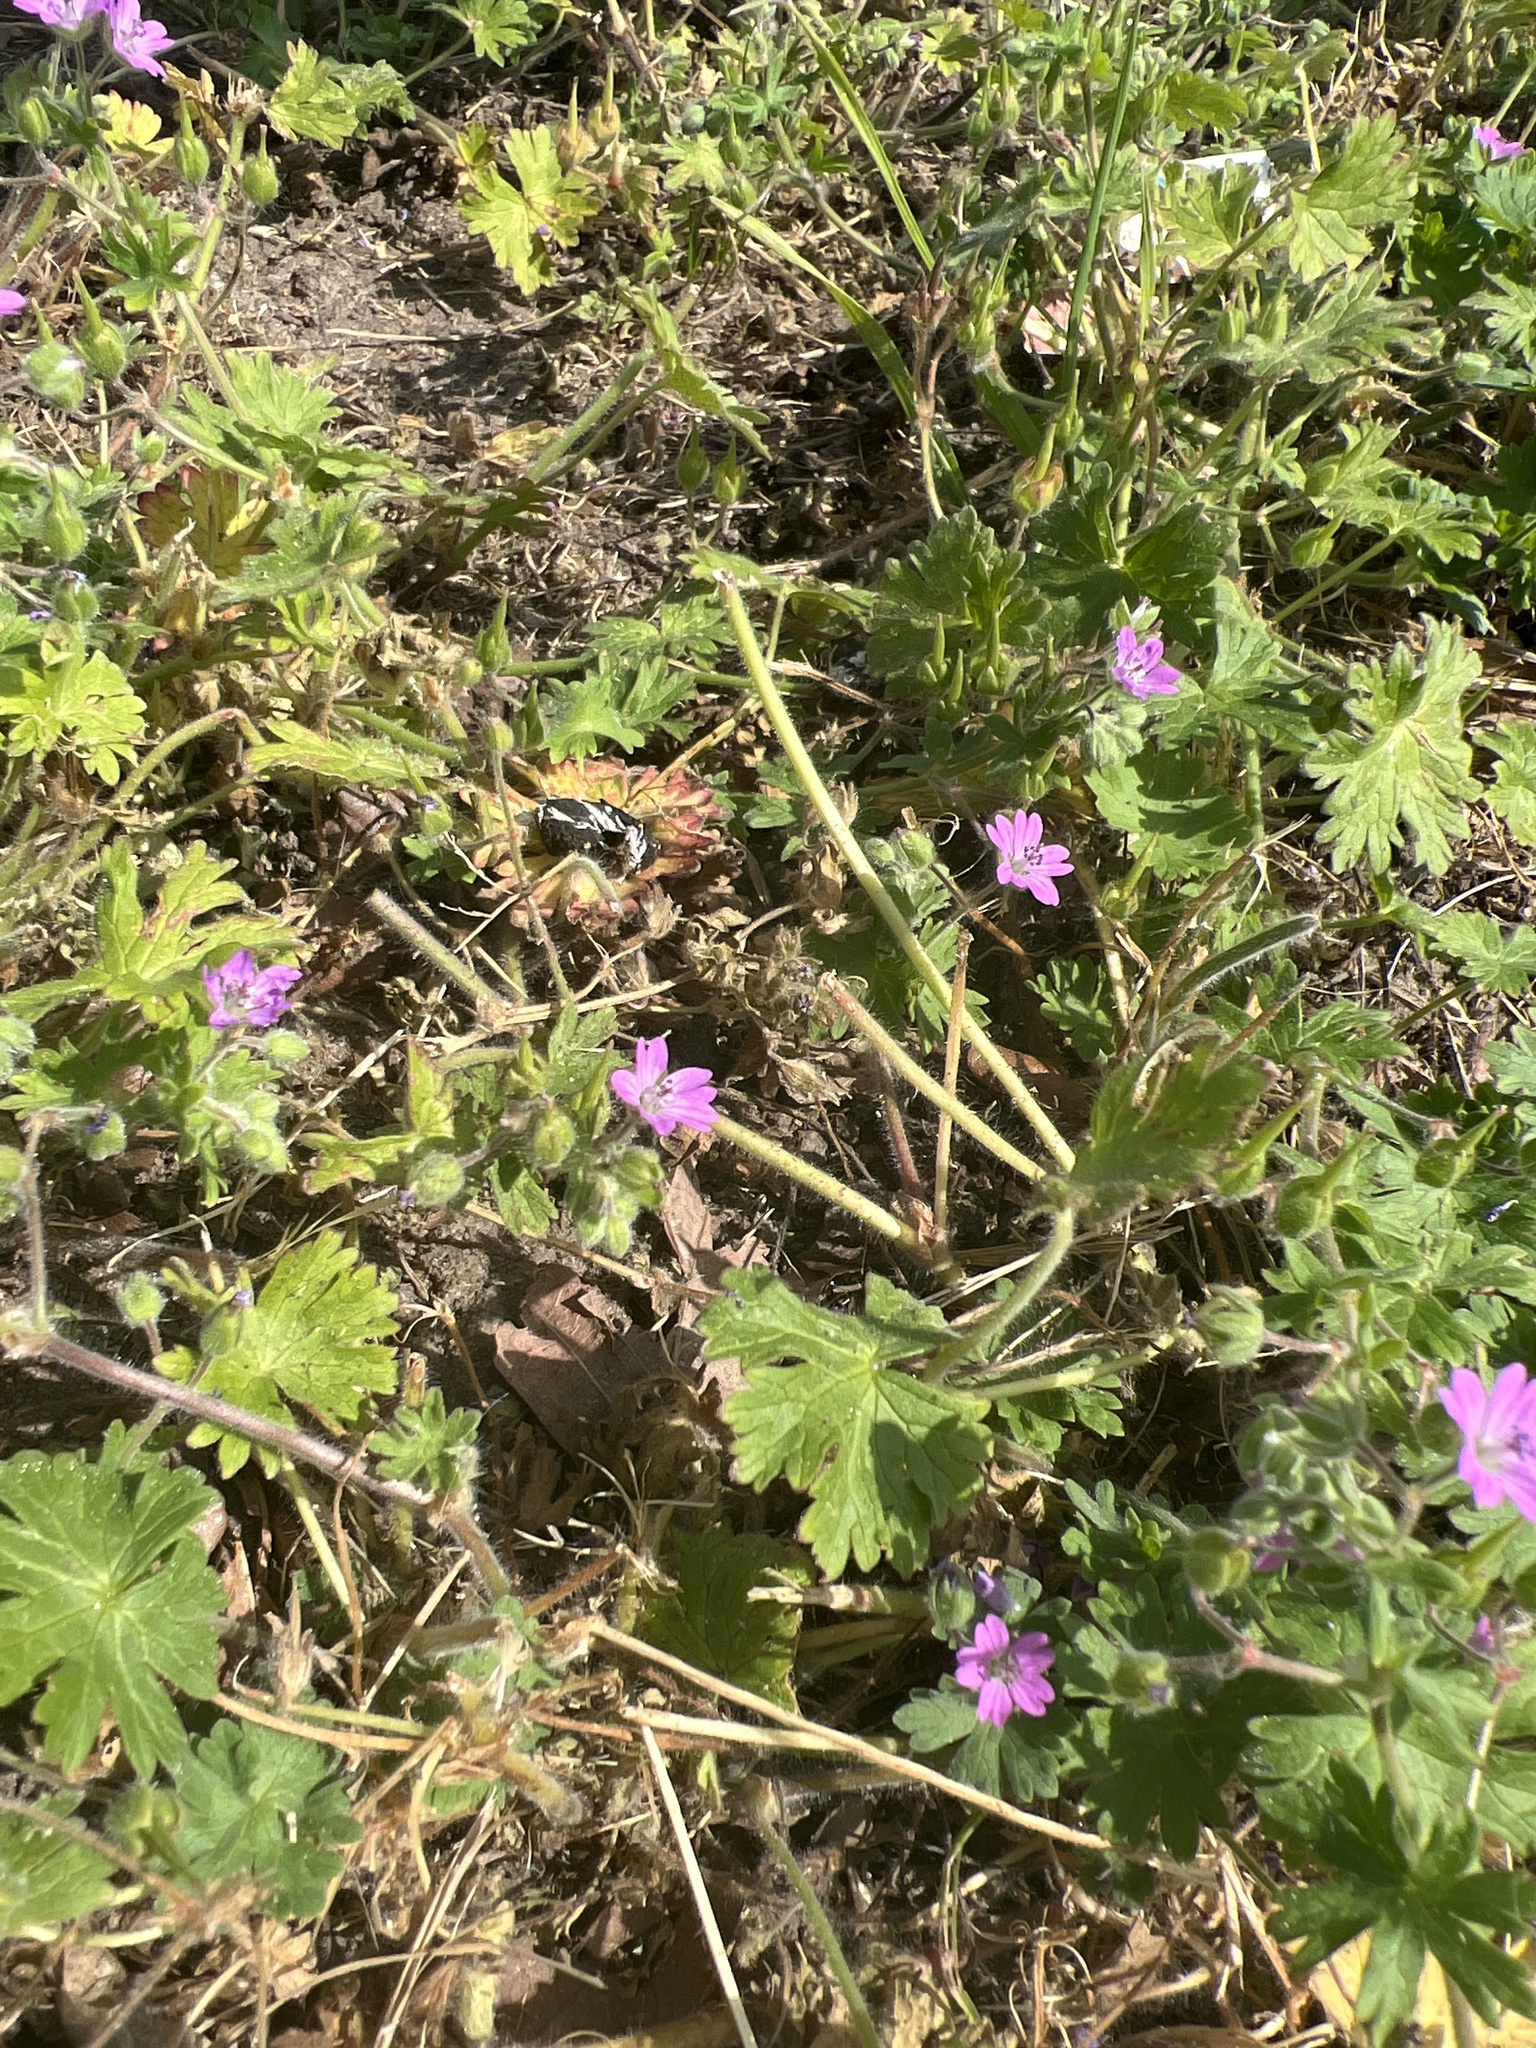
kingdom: Plantae
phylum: Tracheophyta
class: Magnoliopsida
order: Geraniales
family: Geraniaceae
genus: Geranium
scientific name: Geranium molle
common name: Dove's-foot crane's-bill
